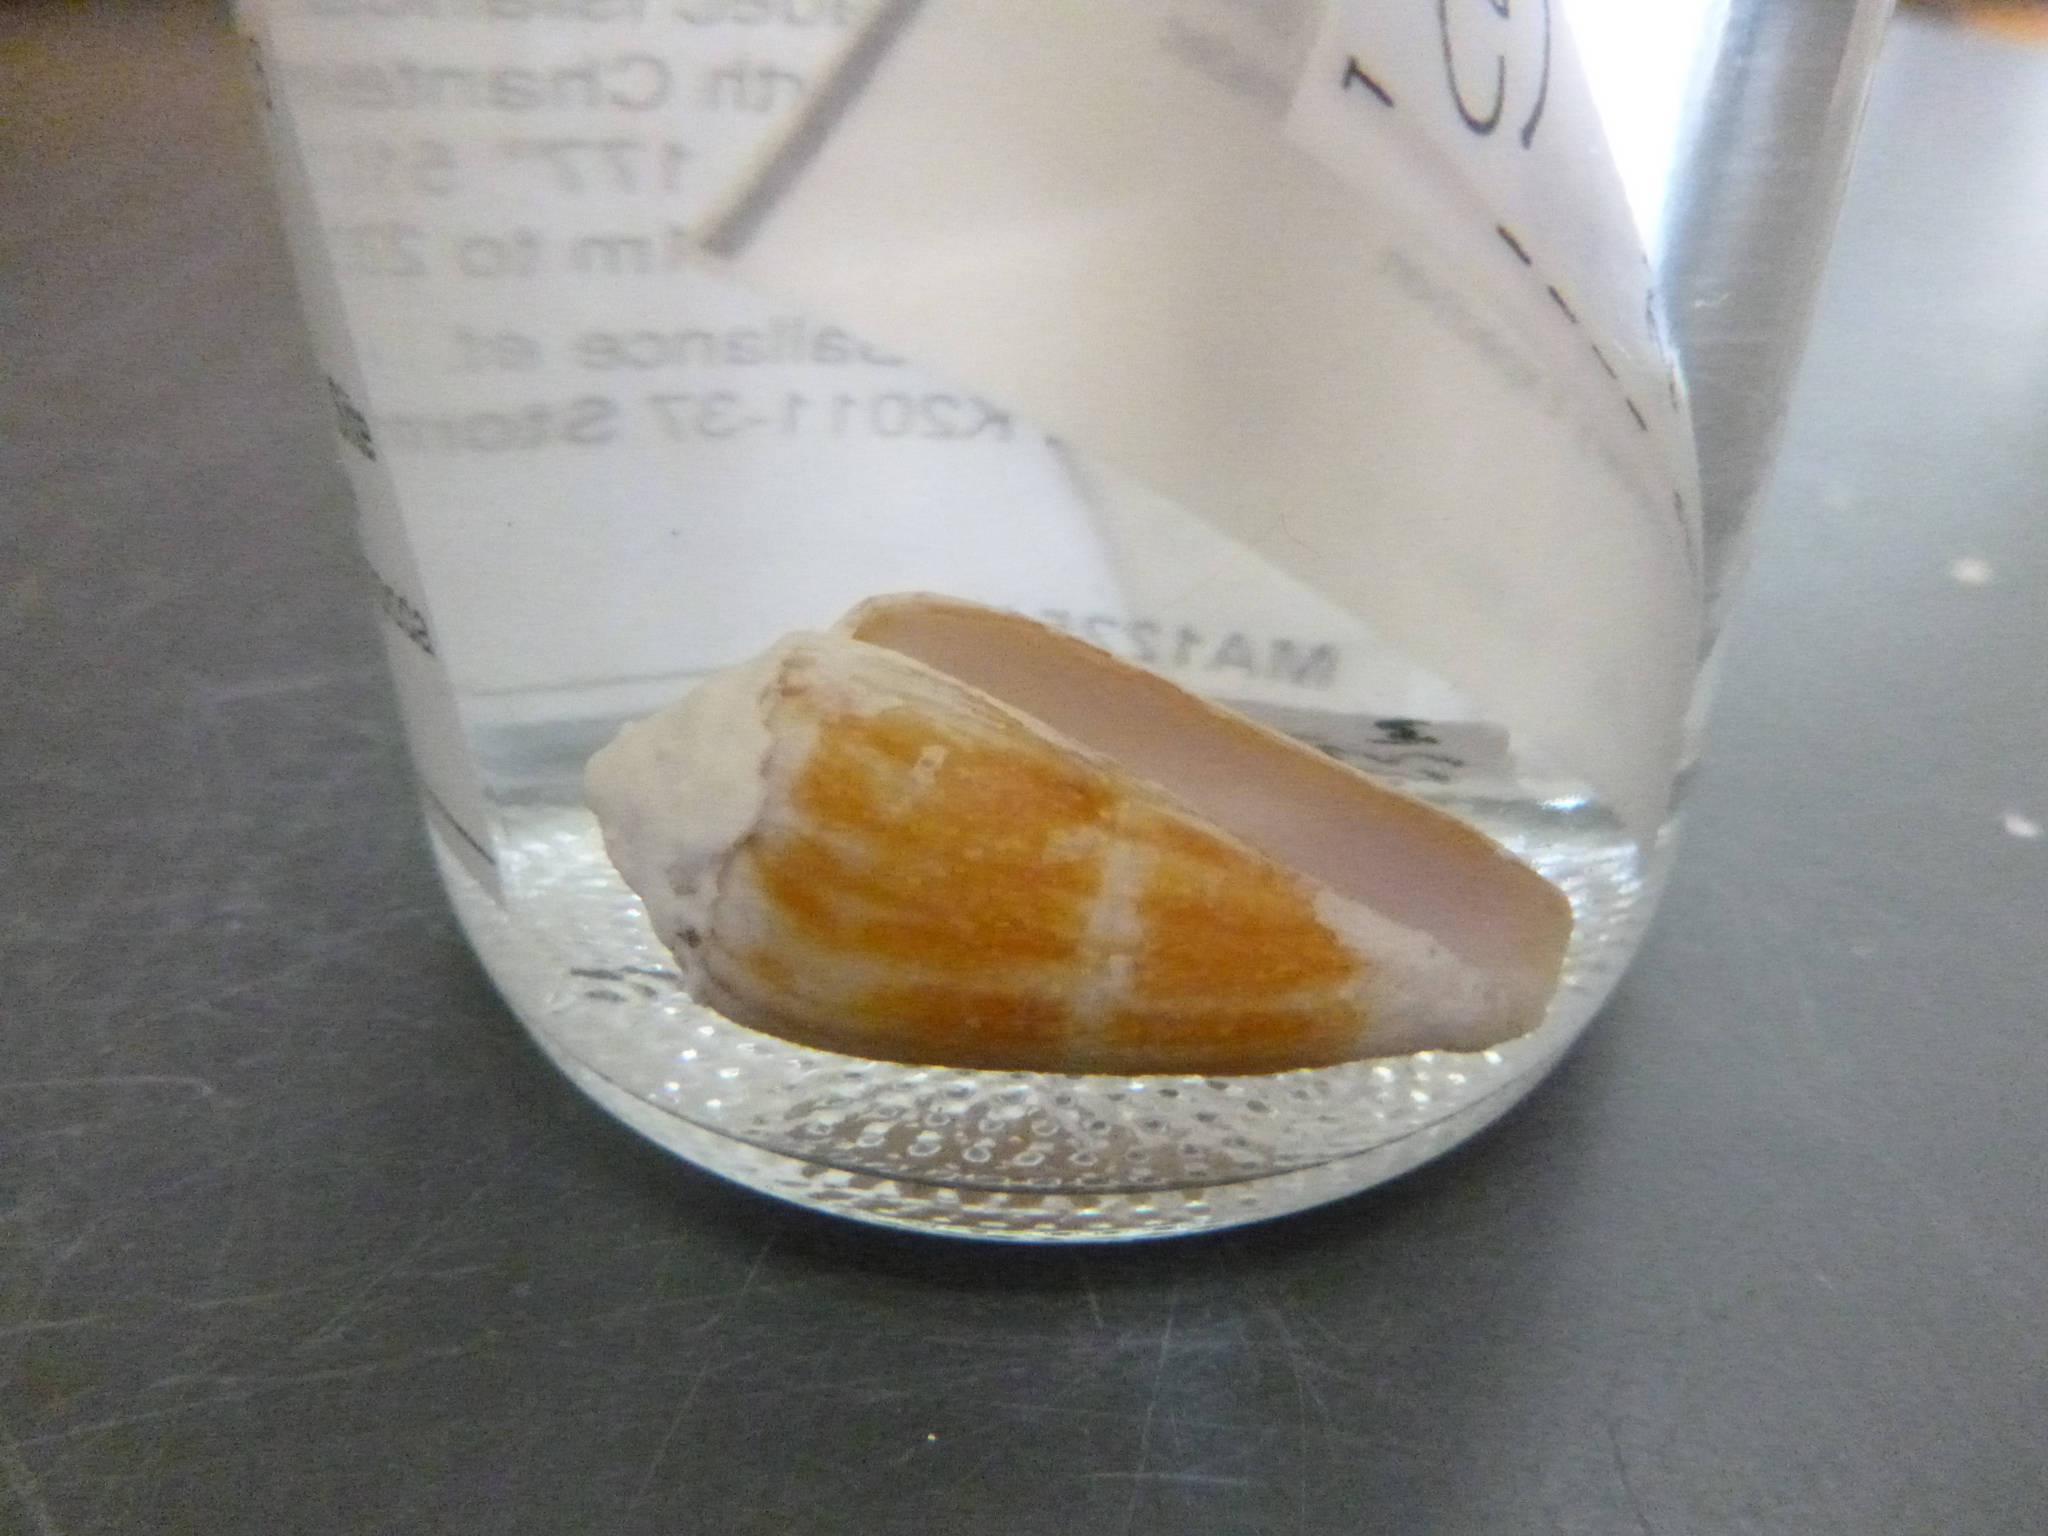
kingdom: Animalia
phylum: Mollusca
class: Gastropoda
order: Neogastropoda
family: Conidae
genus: Conus
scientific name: Conus lischkeanus
